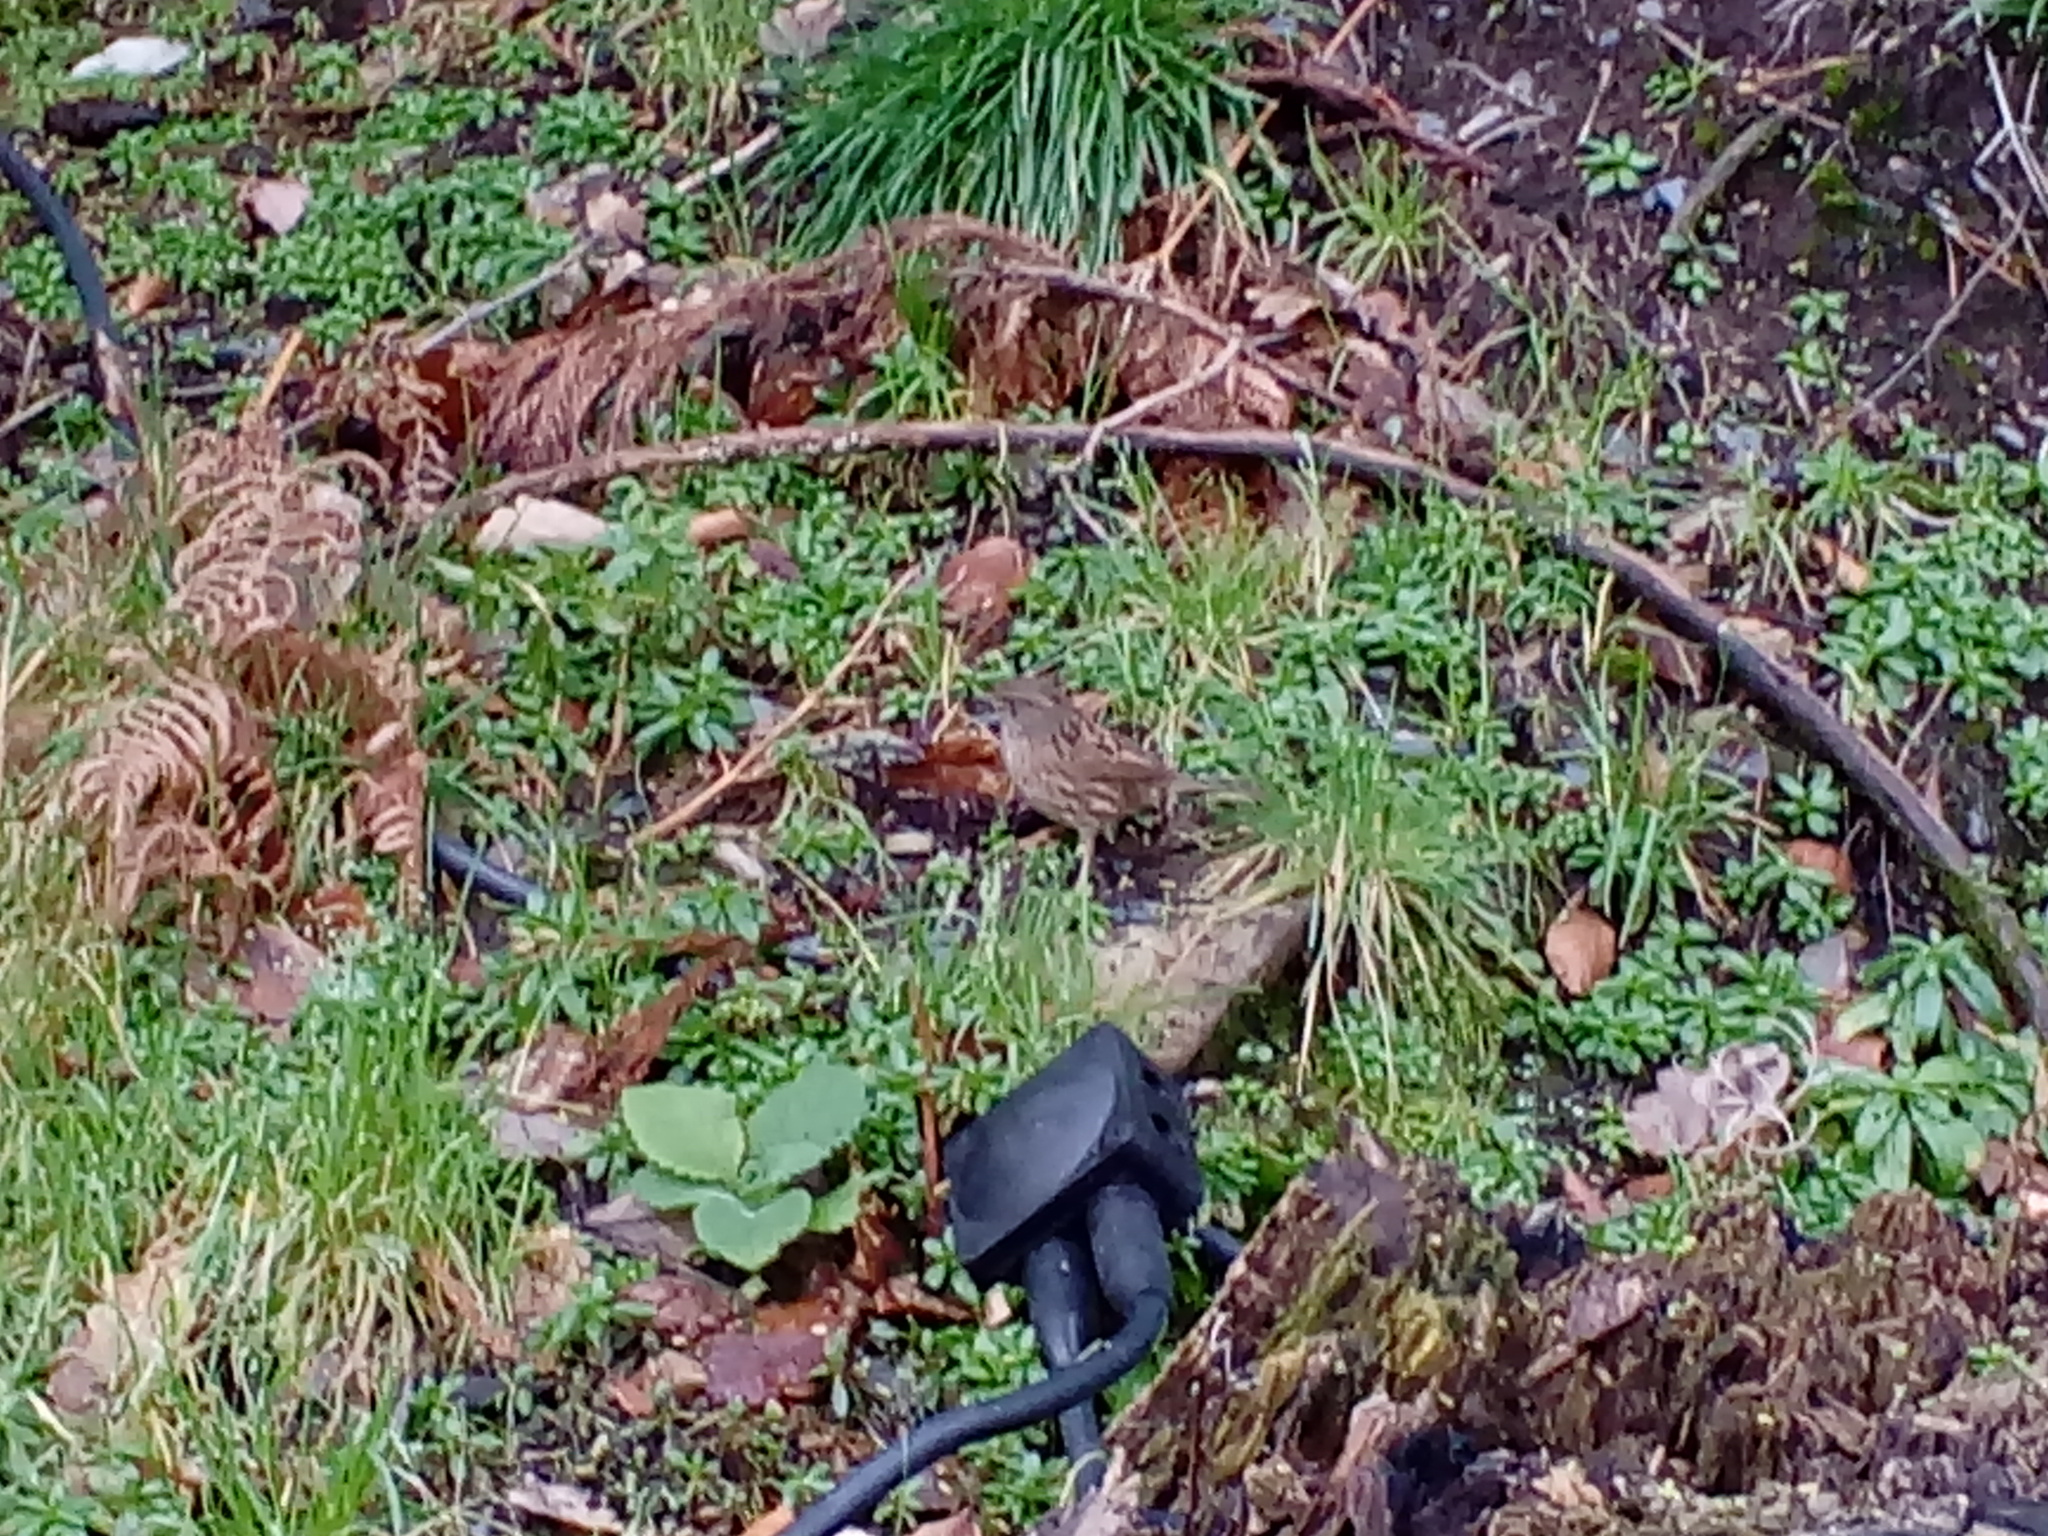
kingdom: Animalia
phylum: Chordata
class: Aves
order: Passeriformes
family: Prunellidae
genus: Prunella
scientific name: Prunella modularis
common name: Dunnock
